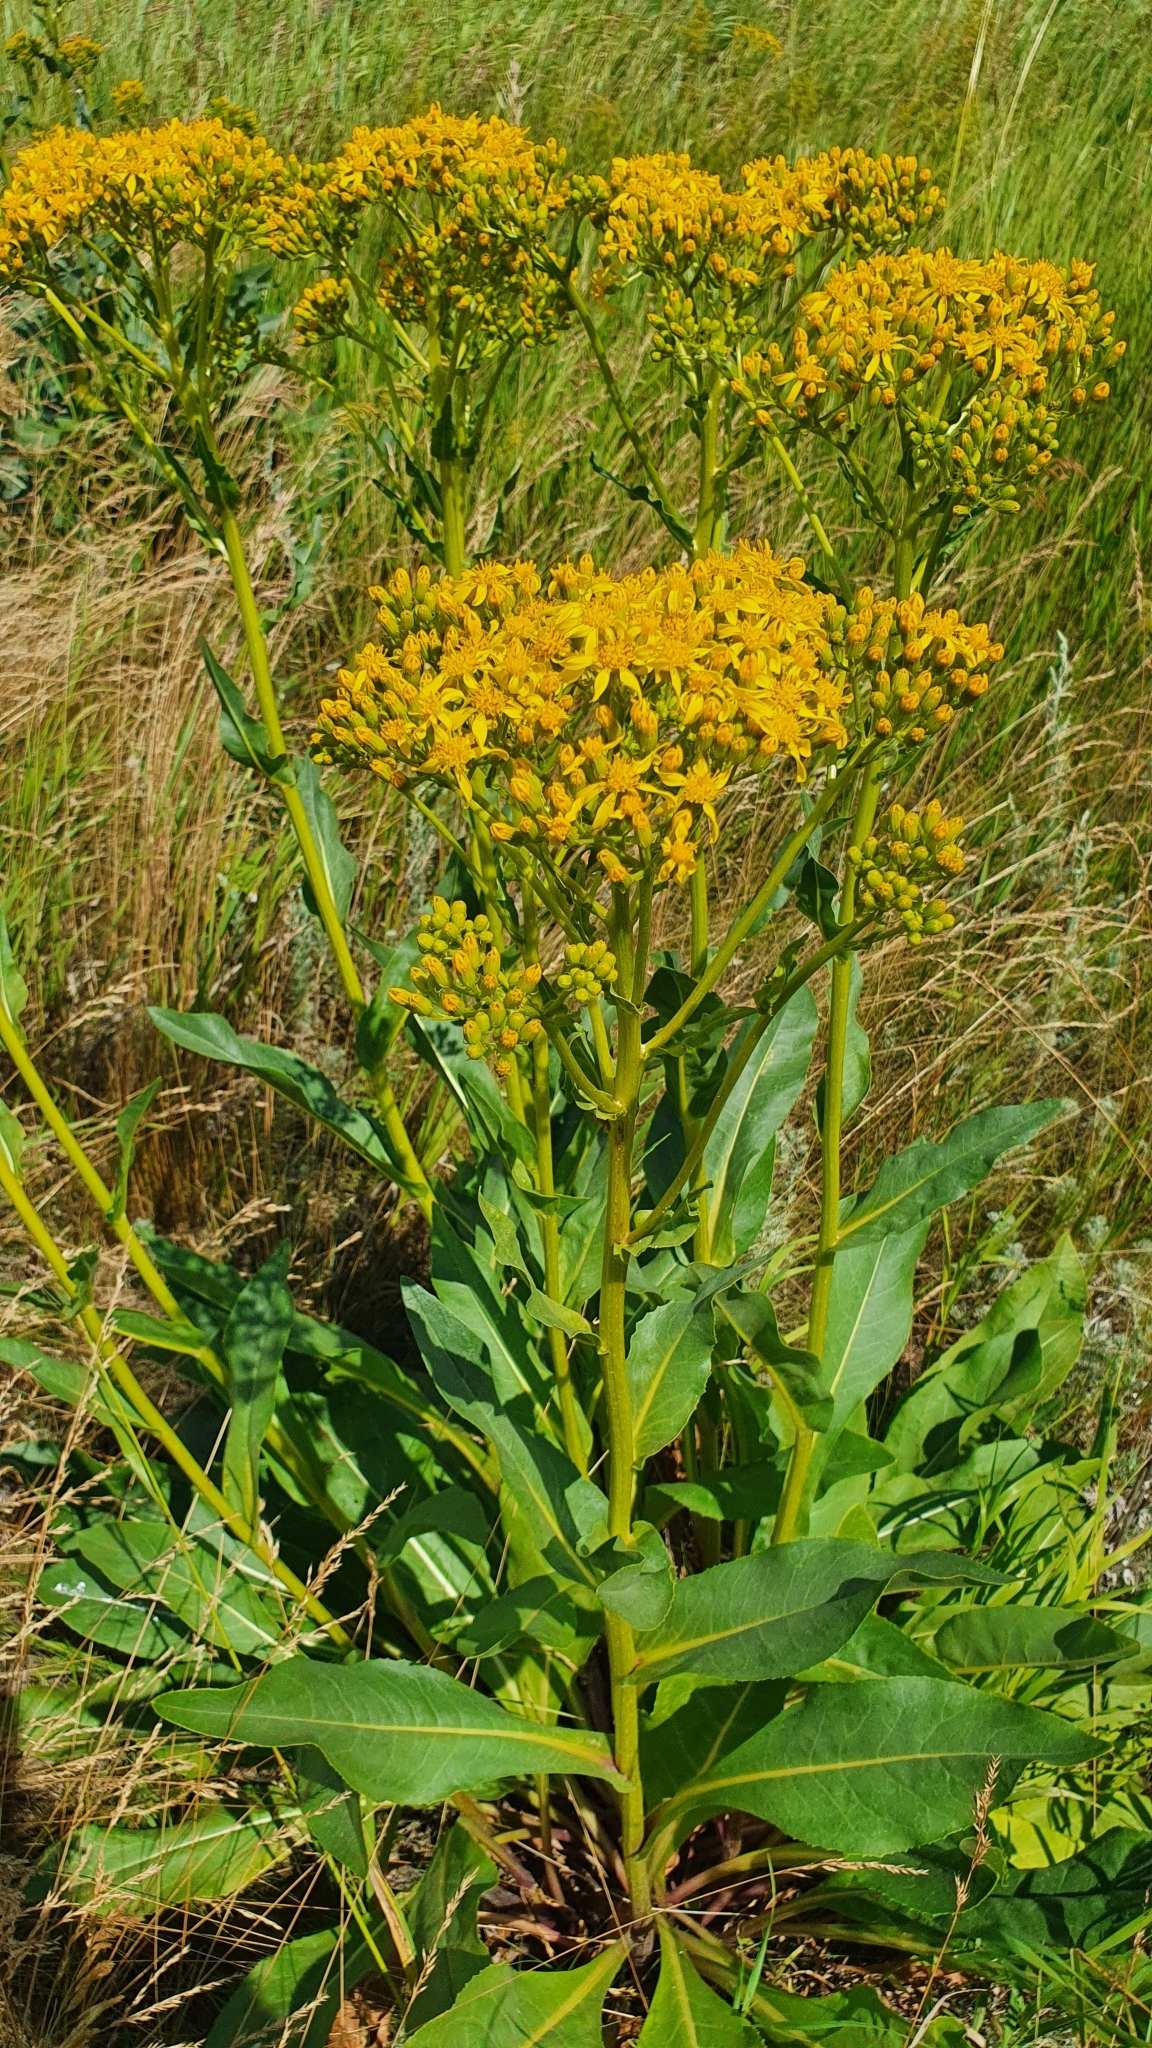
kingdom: Plantae
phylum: Tracheophyta
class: Magnoliopsida
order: Asterales
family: Asteraceae
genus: Senecio
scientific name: Senecio doria
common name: Golden ragwort
